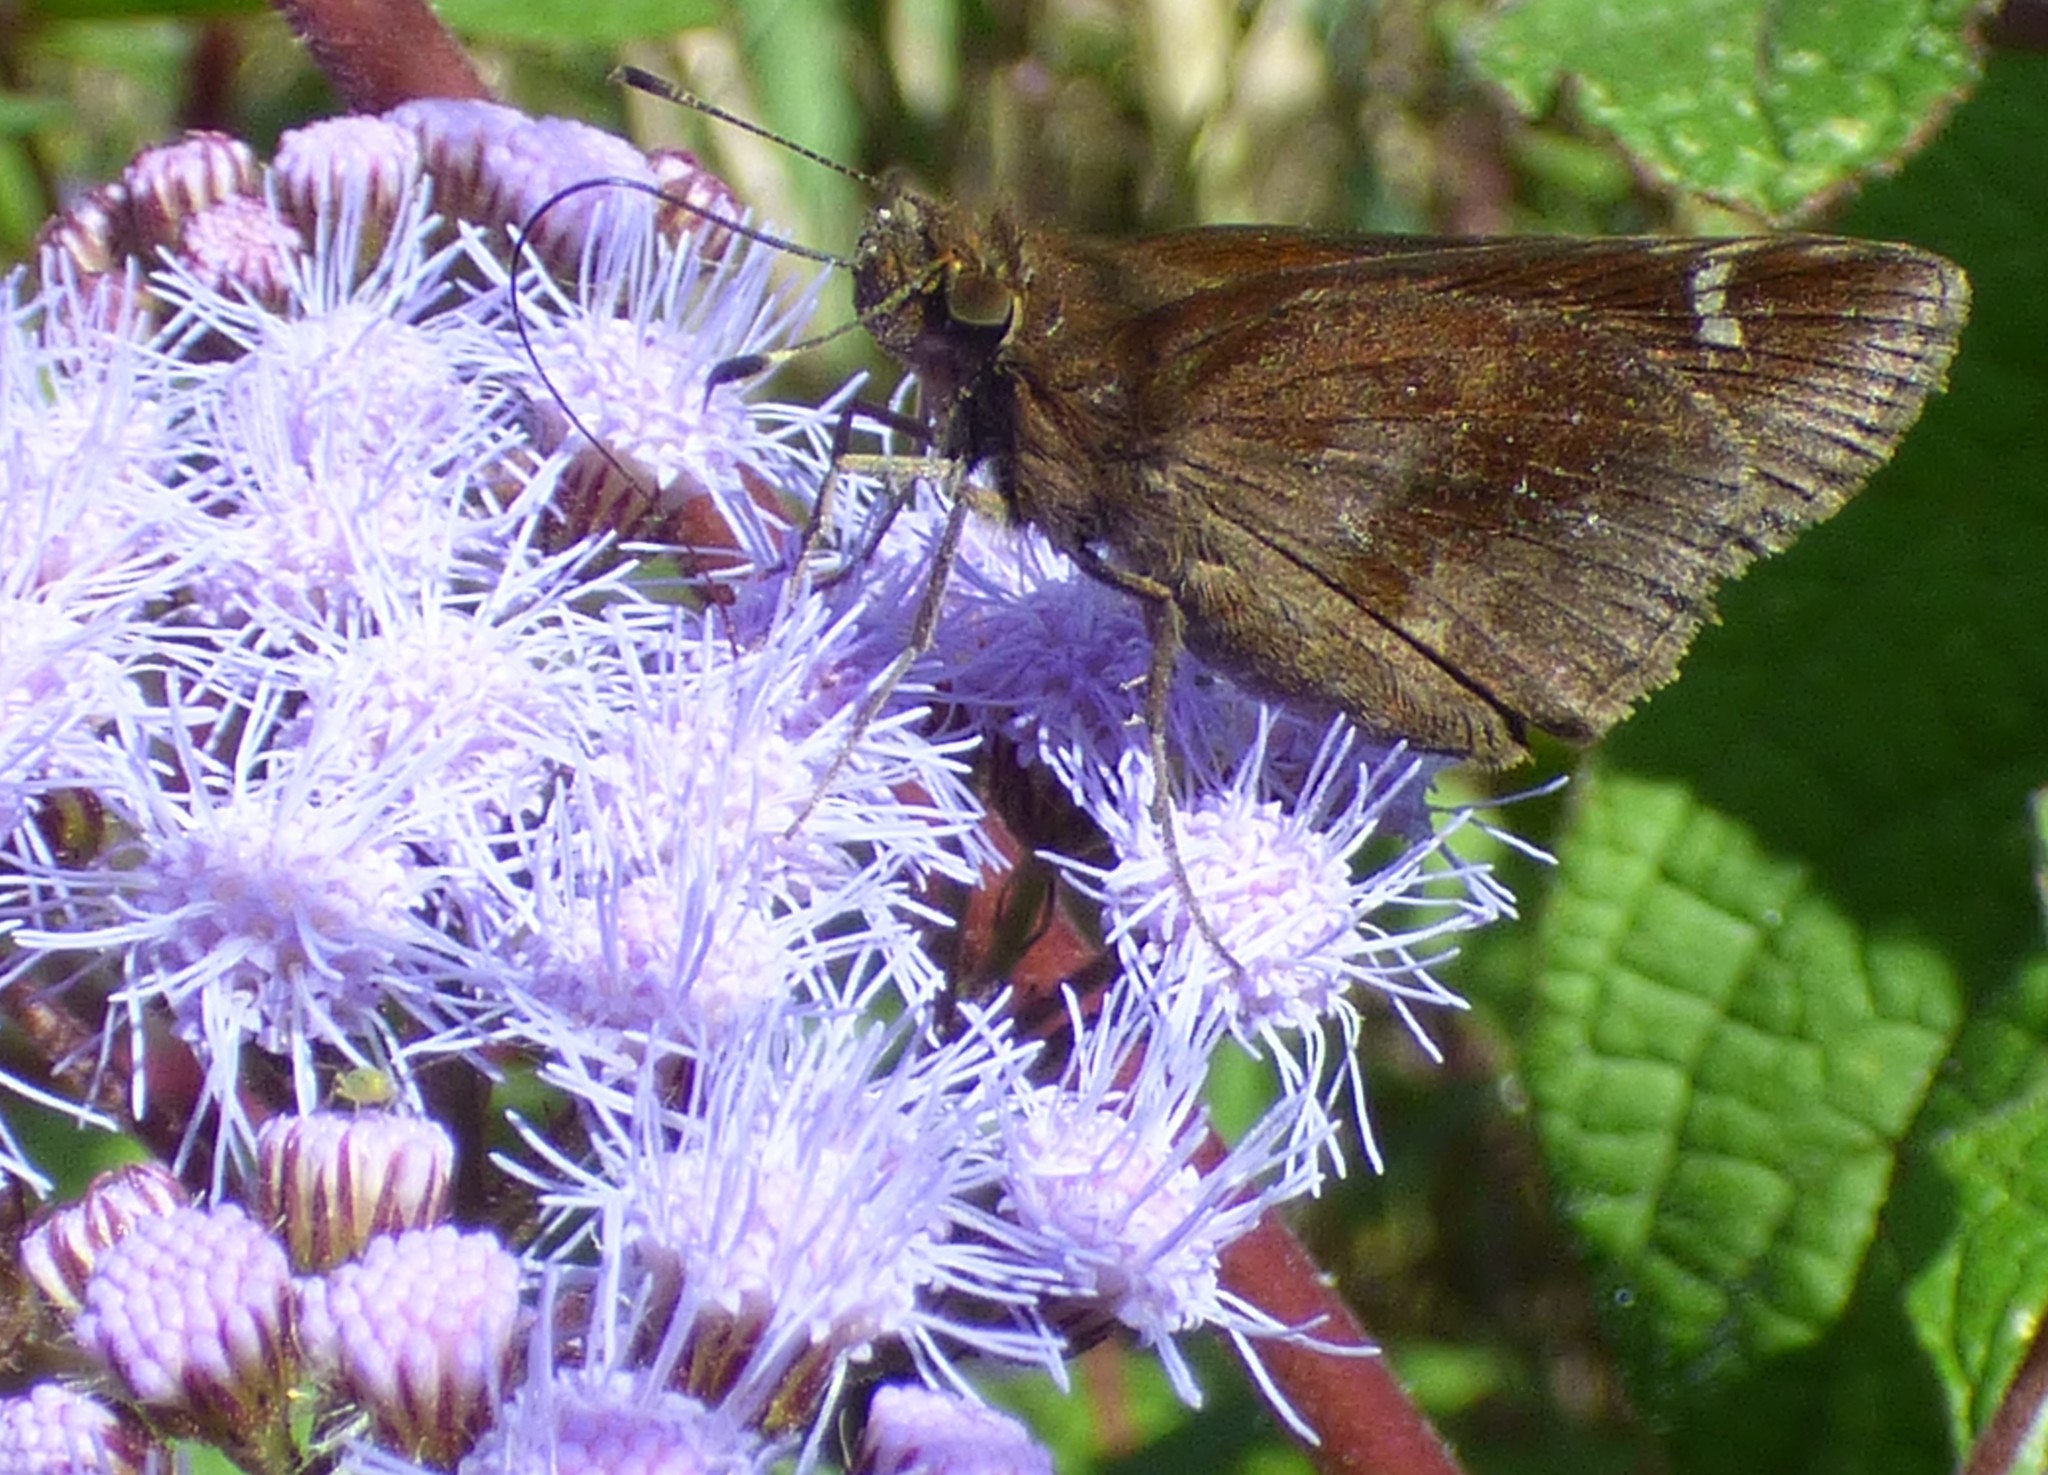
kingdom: Animalia
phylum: Arthropoda
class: Insecta
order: Lepidoptera
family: Hesperiidae
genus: Lerema
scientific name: Lerema accius
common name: Clouded skipper
